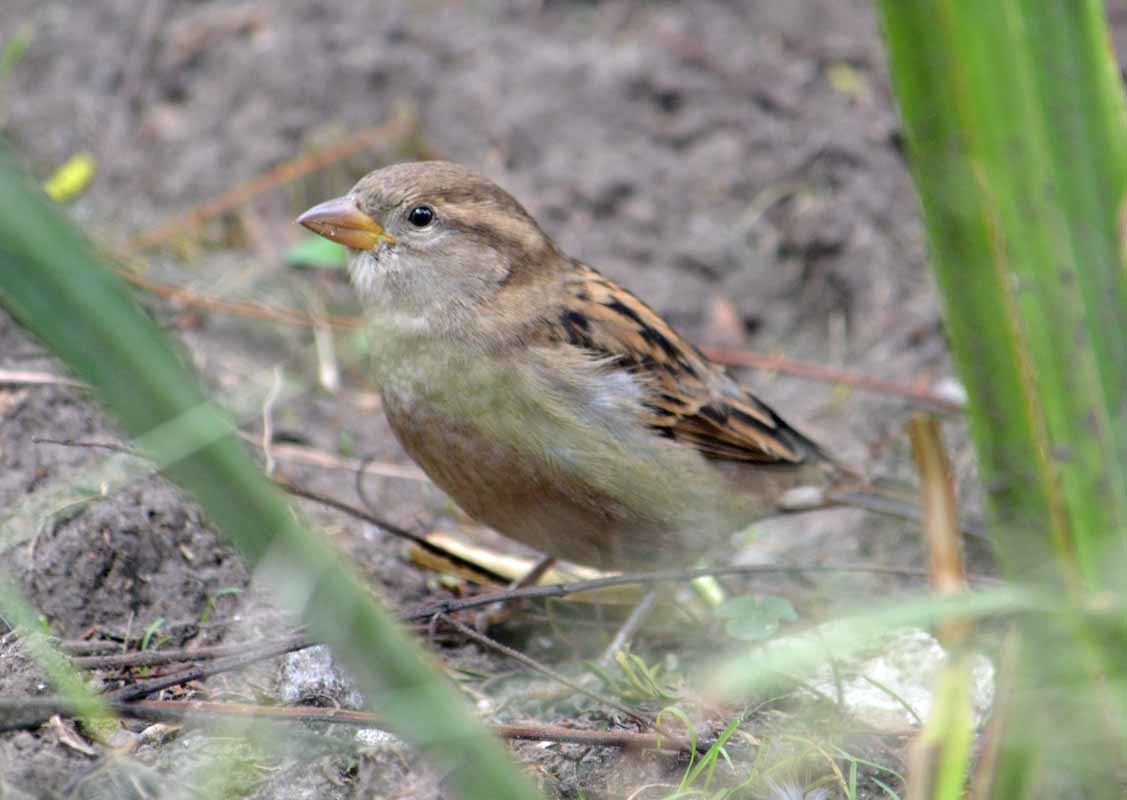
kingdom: Animalia
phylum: Chordata
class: Aves
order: Passeriformes
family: Passeridae
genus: Passer
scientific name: Passer domesticus
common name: House sparrow
